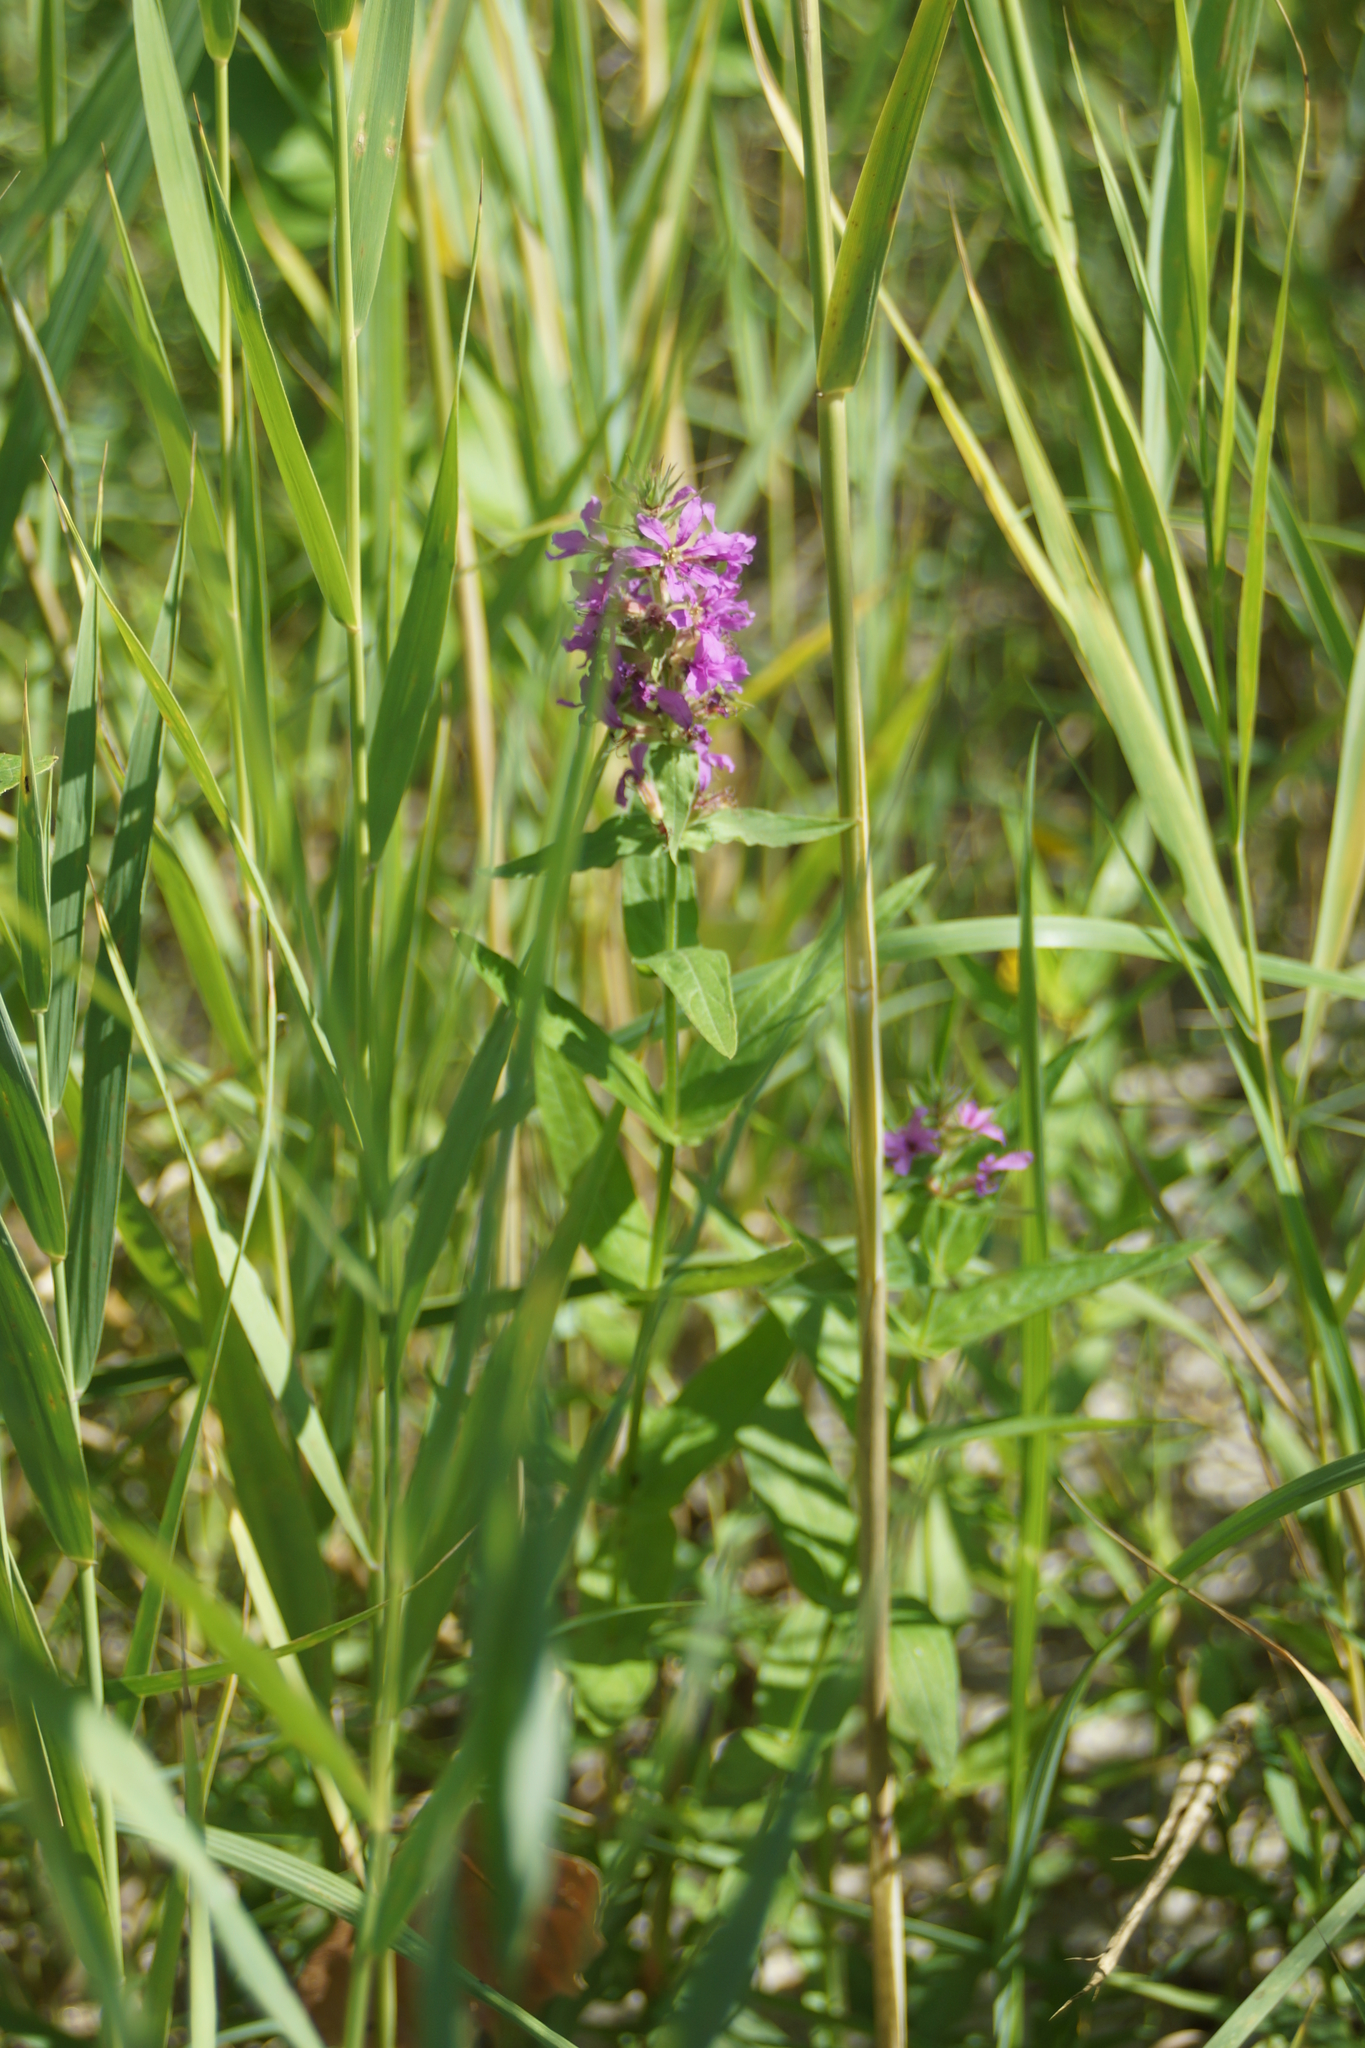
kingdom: Plantae
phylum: Tracheophyta
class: Magnoliopsida
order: Myrtales
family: Lythraceae
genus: Lythrum
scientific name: Lythrum salicaria
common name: Purple loosestrife
